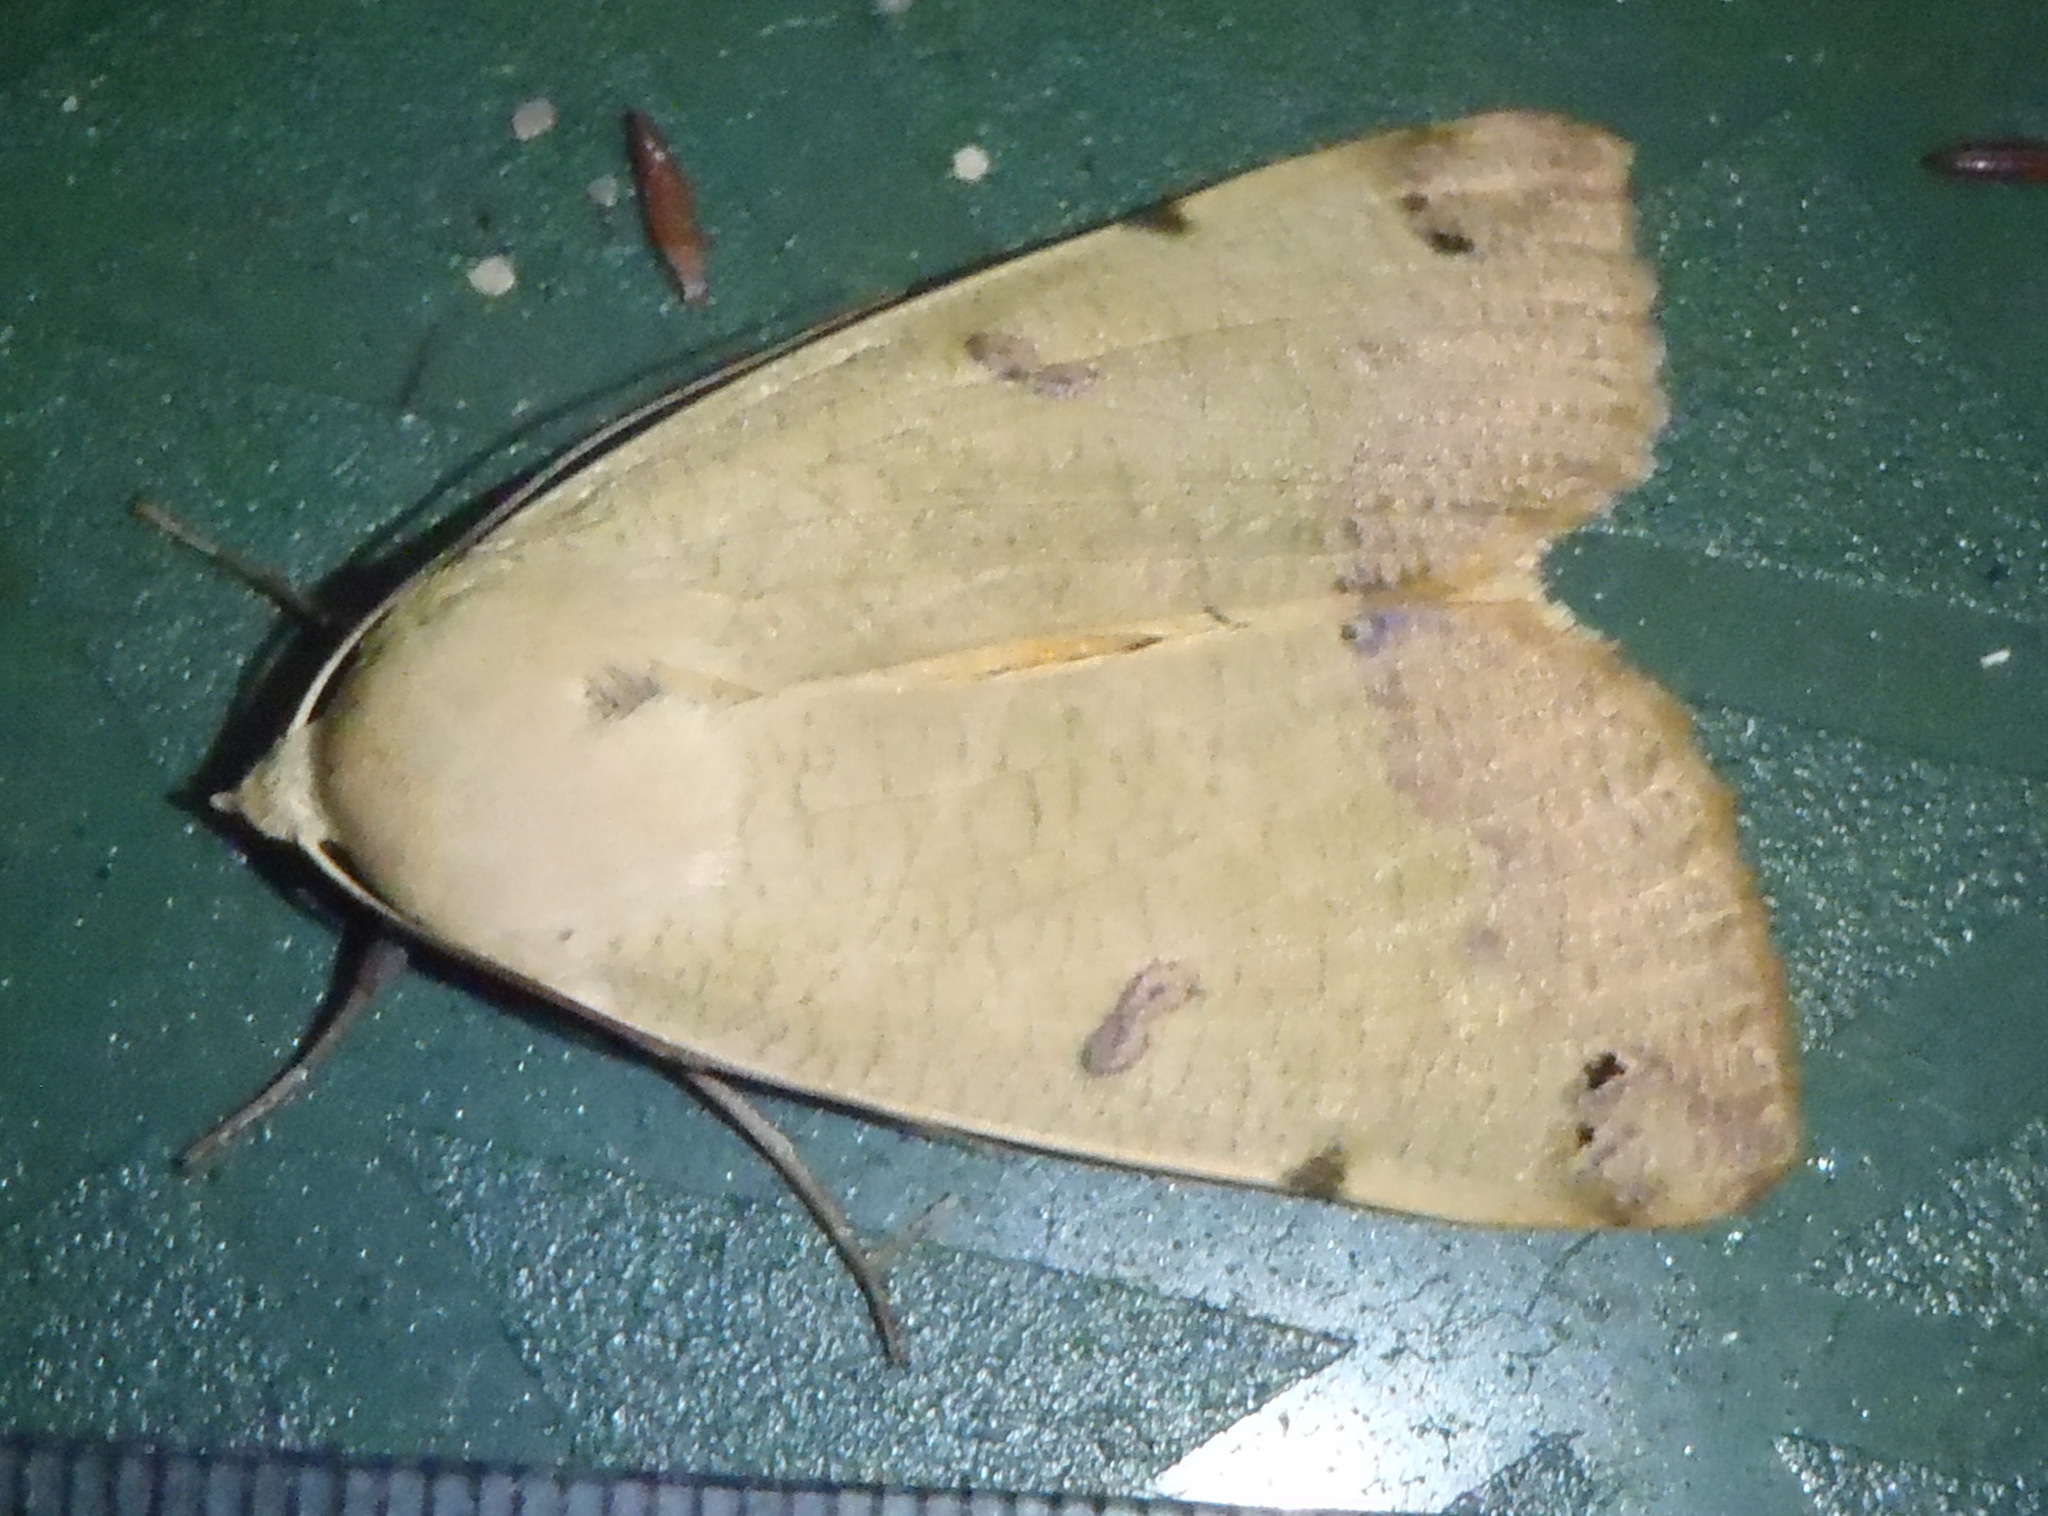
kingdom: Animalia
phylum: Arthropoda
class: Insecta
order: Lepidoptera
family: Erebidae
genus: Ophiusa
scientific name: Ophiusa tirhaca
